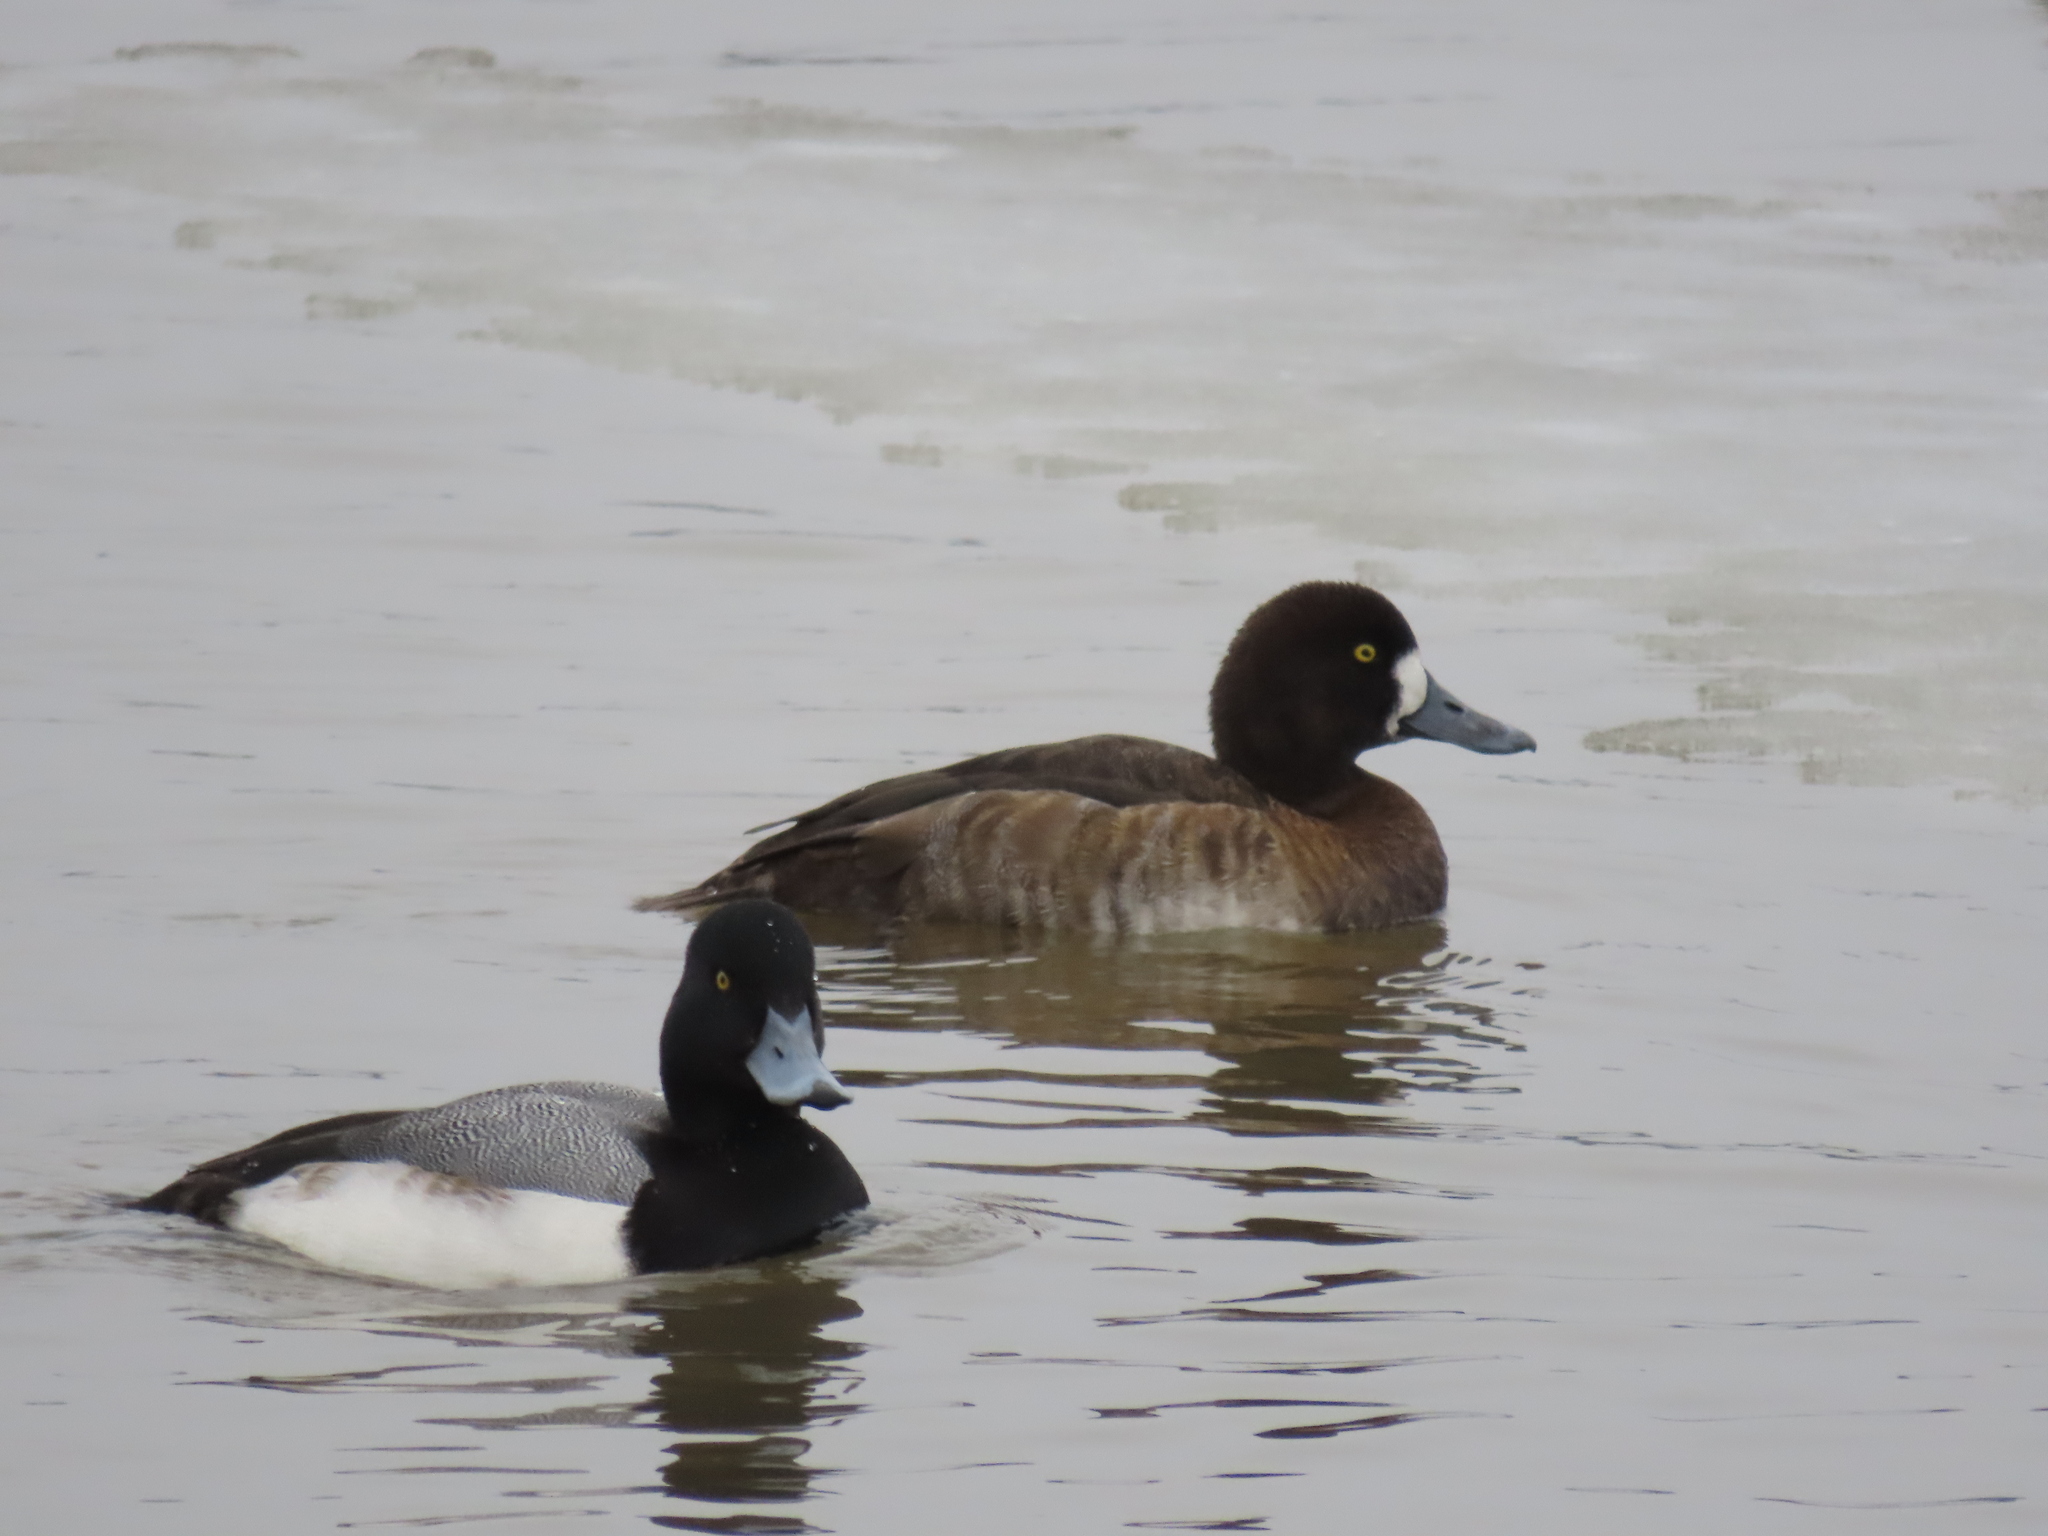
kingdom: Animalia
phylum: Chordata
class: Aves
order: Anseriformes
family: Anatidae
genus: Aythya
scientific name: Aythya marila
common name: Greater scaup
